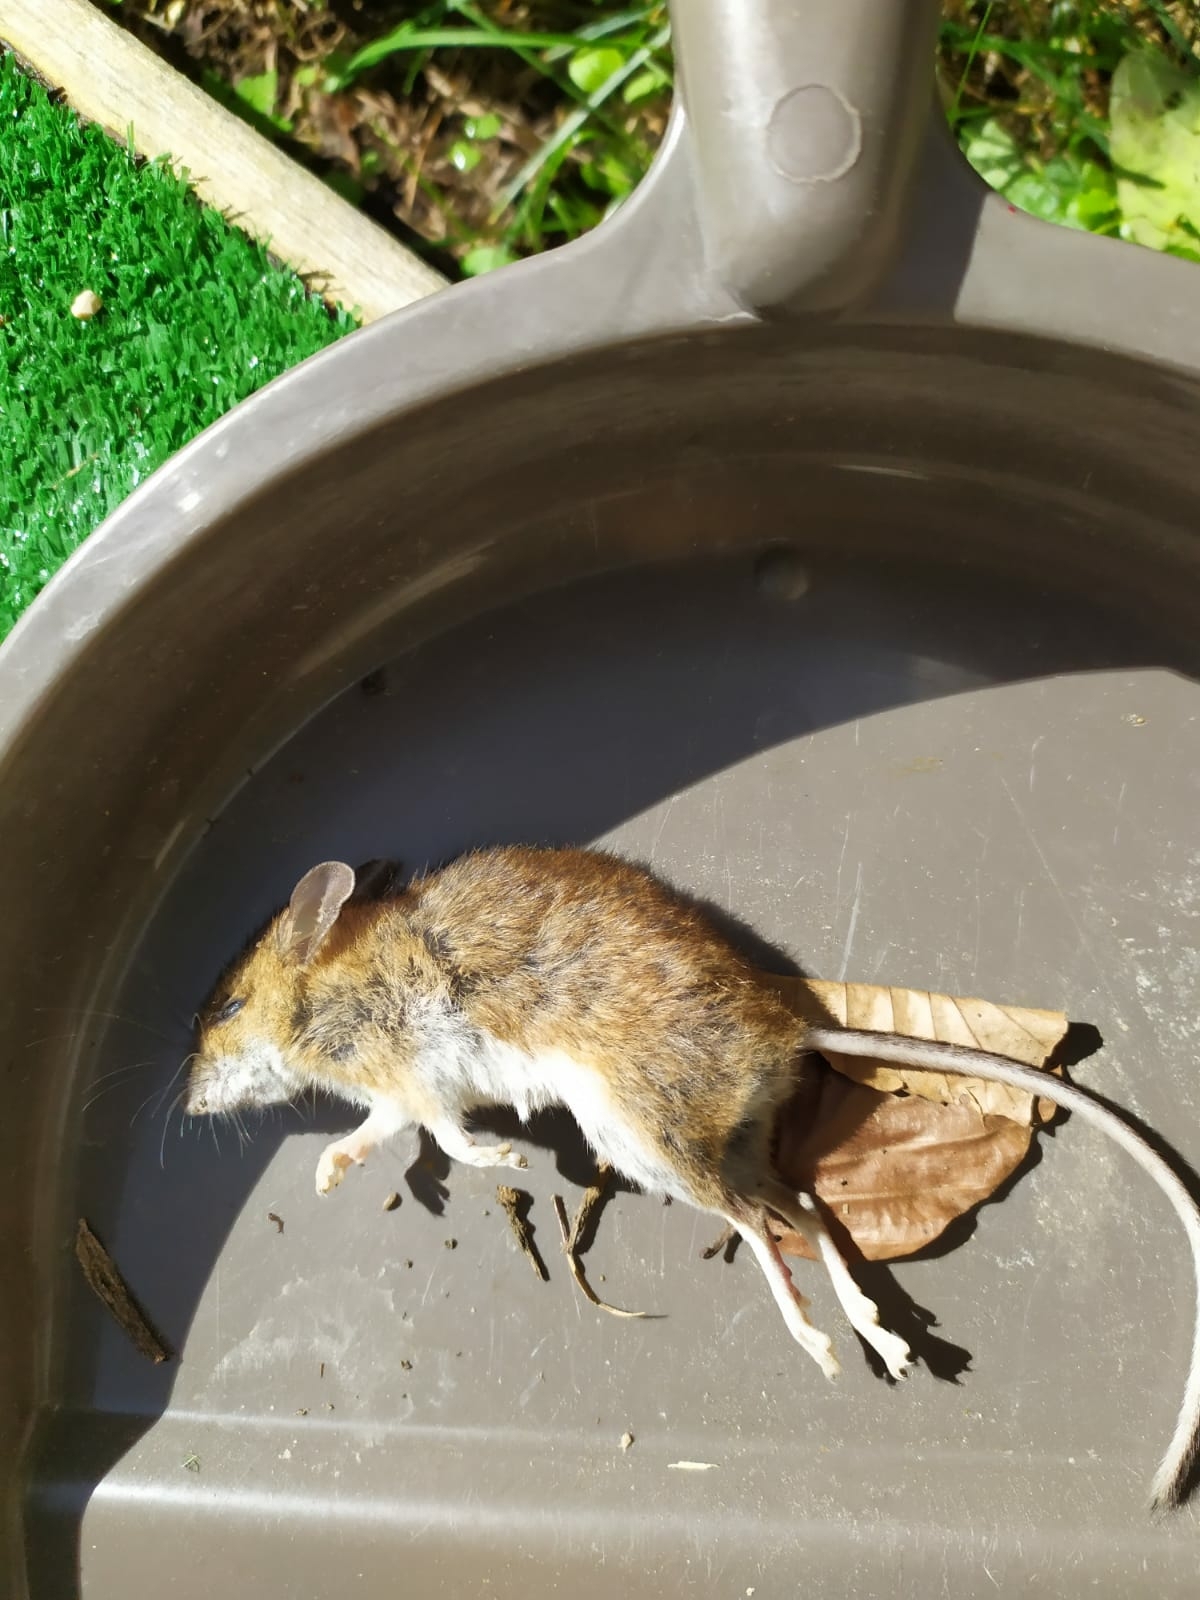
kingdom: Animalia
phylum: Chordata
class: Mammalia
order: Rodentia
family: Muridae
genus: Apodemus
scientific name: Apodemus flavicollis
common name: Yellow-necked field mouse
